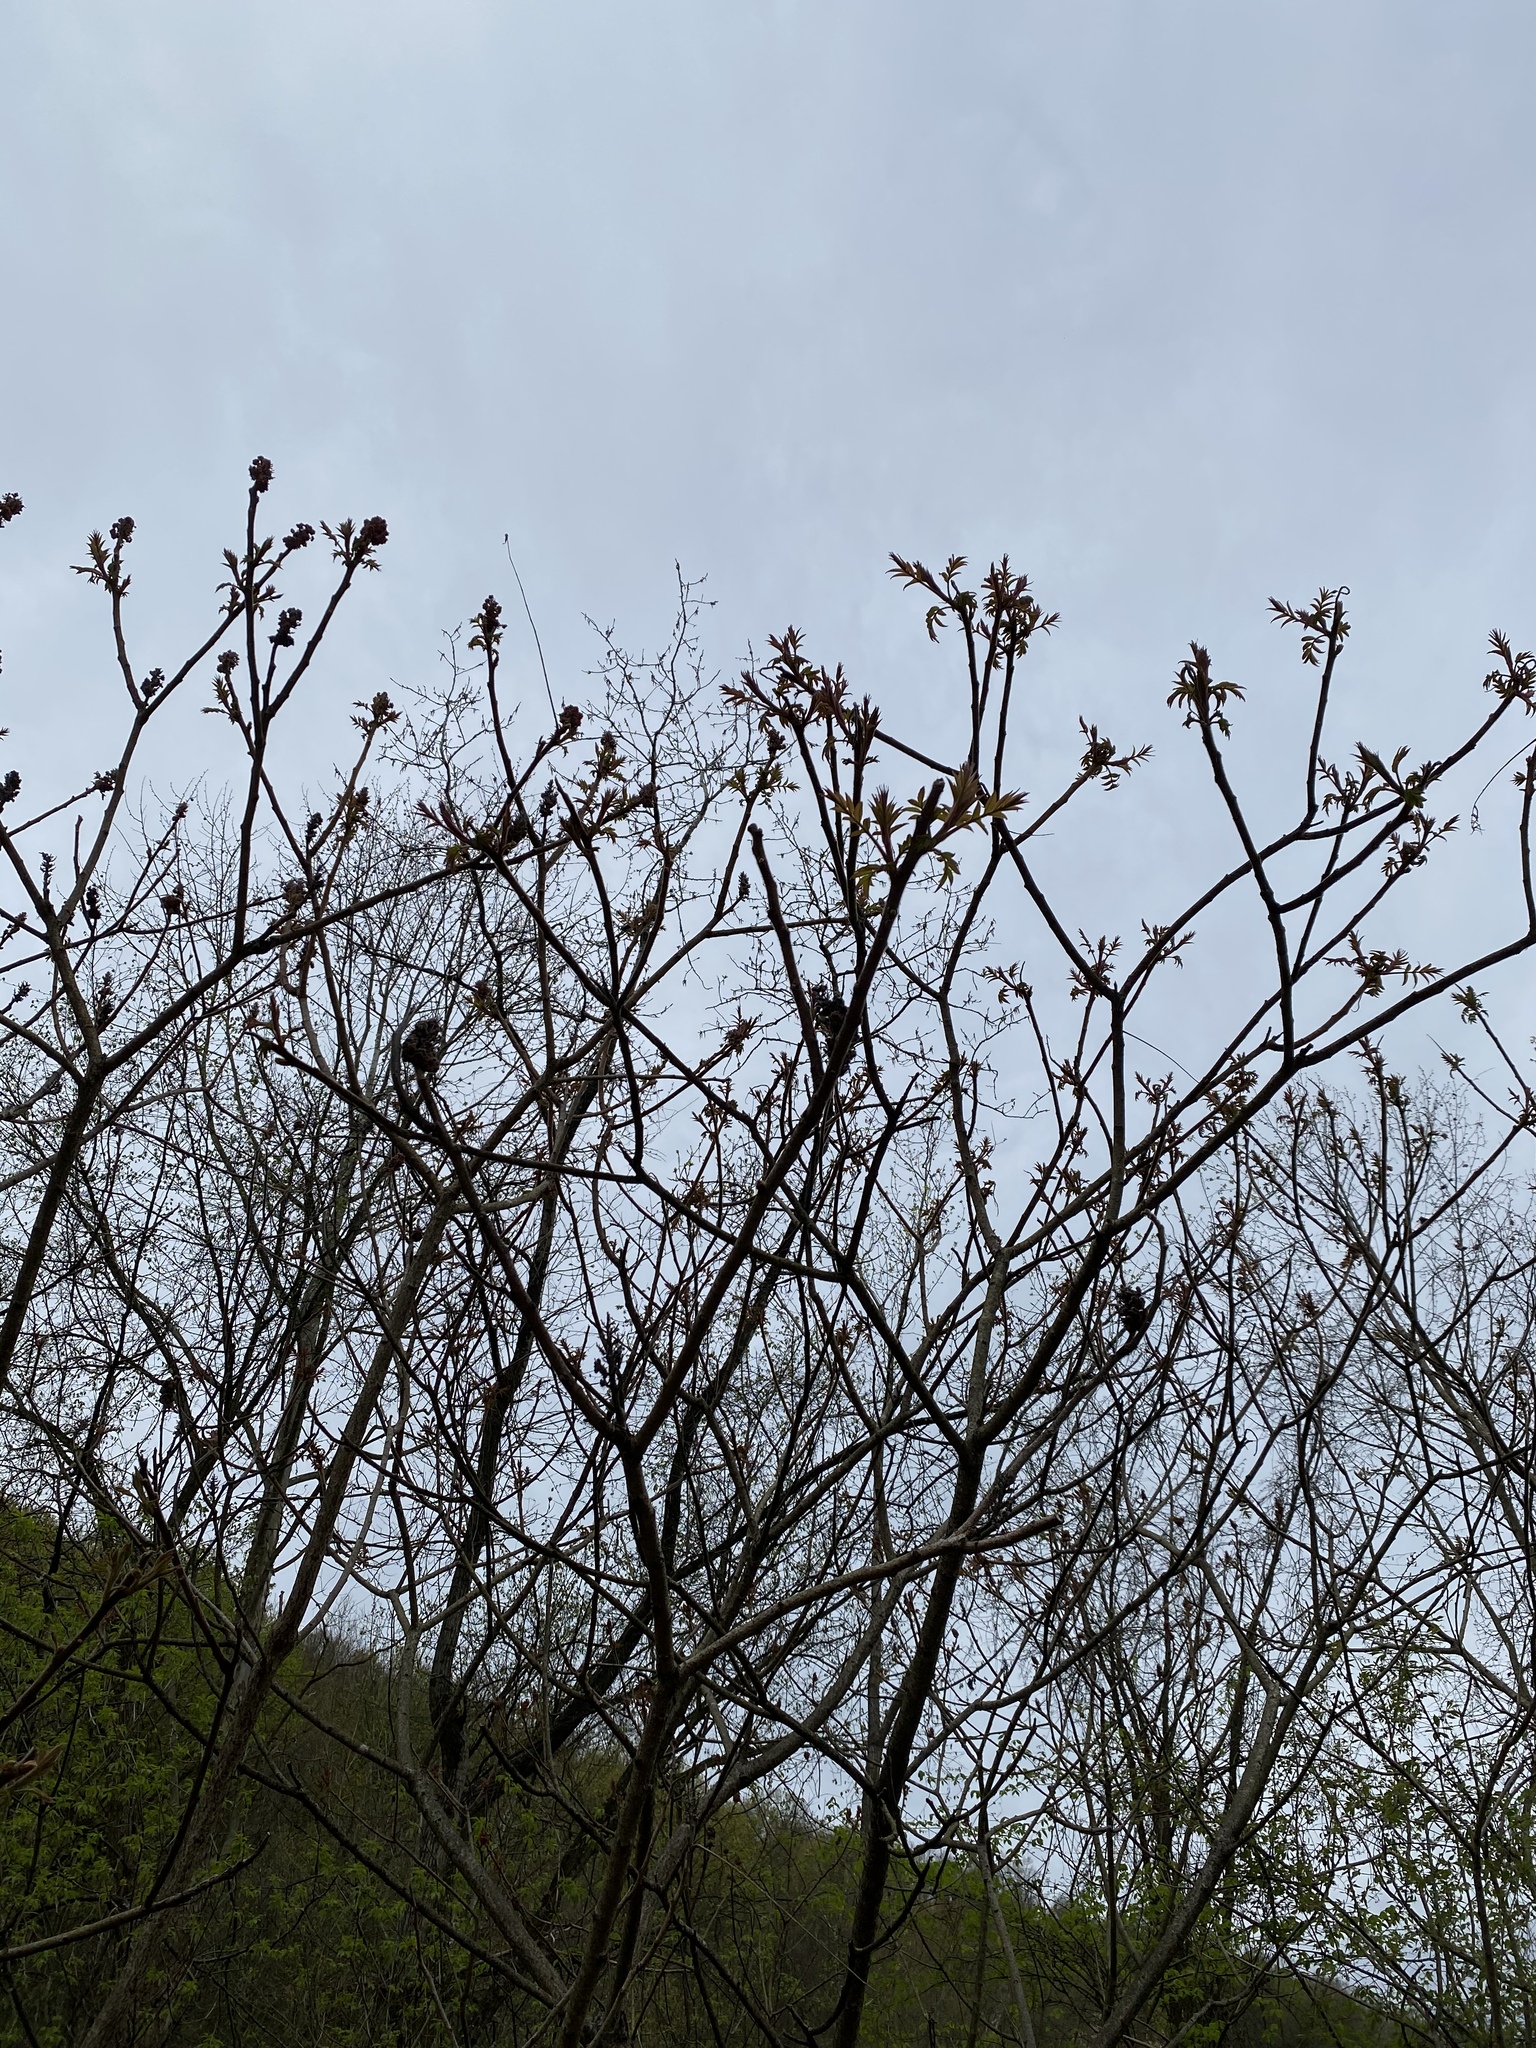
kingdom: Plantae
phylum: Tracheophyta
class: Magnoliopsida
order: Sapindales
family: Anacardiaceae
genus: Rhus
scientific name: Rhus typhina
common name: Staghorn sumac
